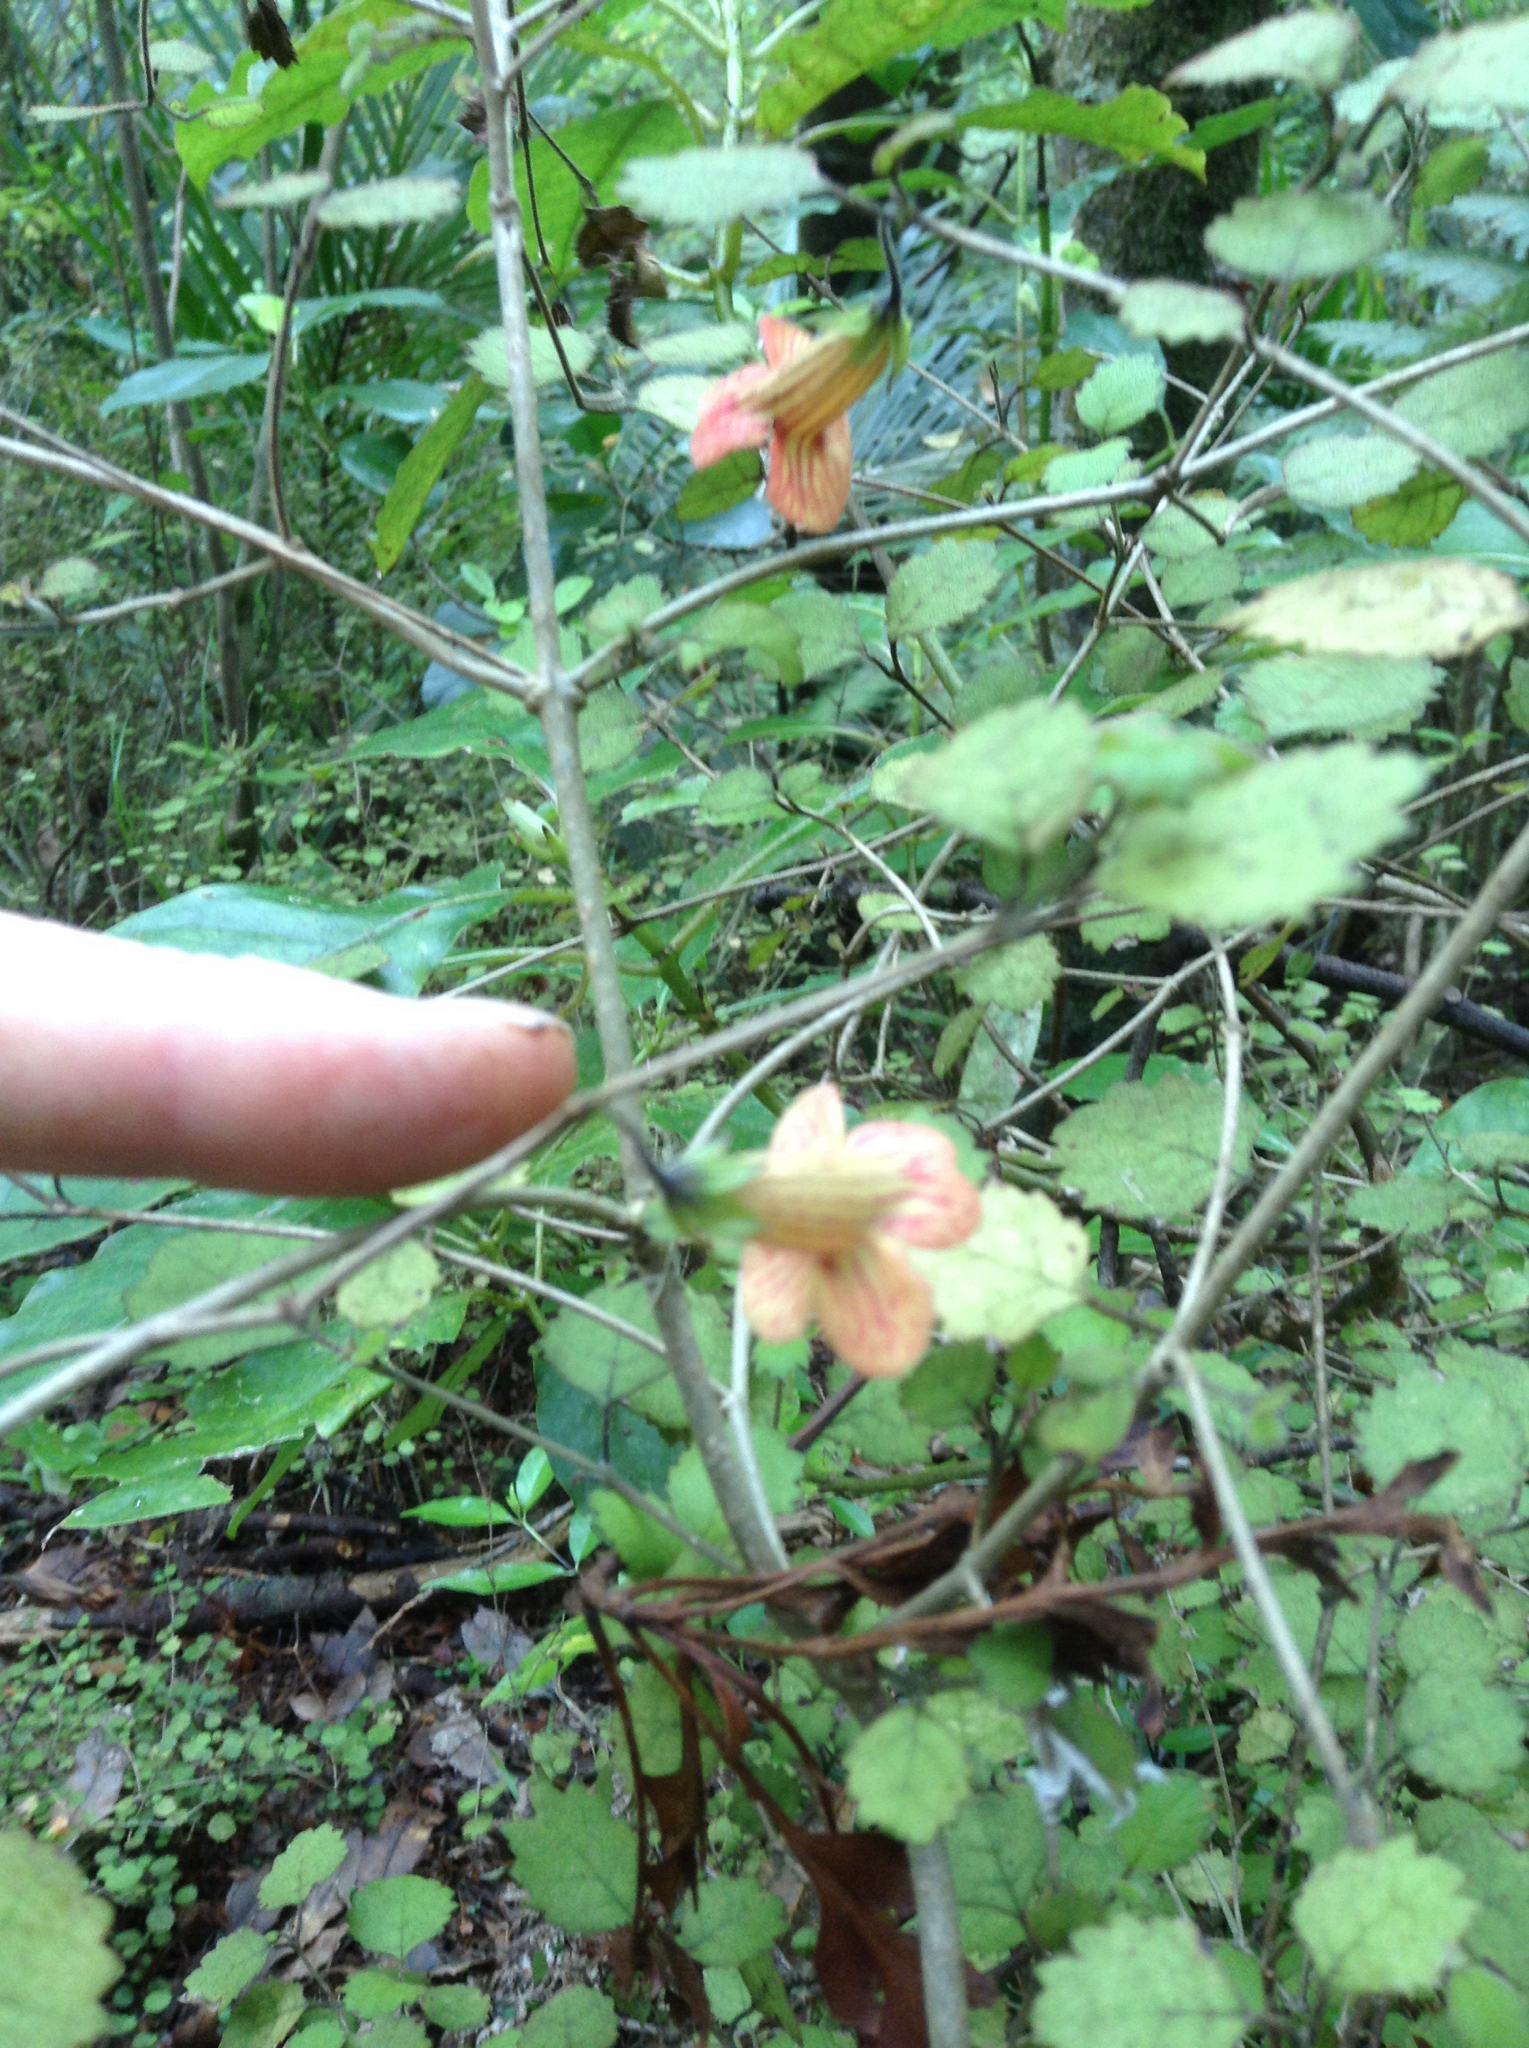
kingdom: Plantae
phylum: Tracheophyta
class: Magnoliopsida
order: Lamiales
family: Gesneriaceae
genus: Rhabdothamnus
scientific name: Rhabdothamnus solandri
